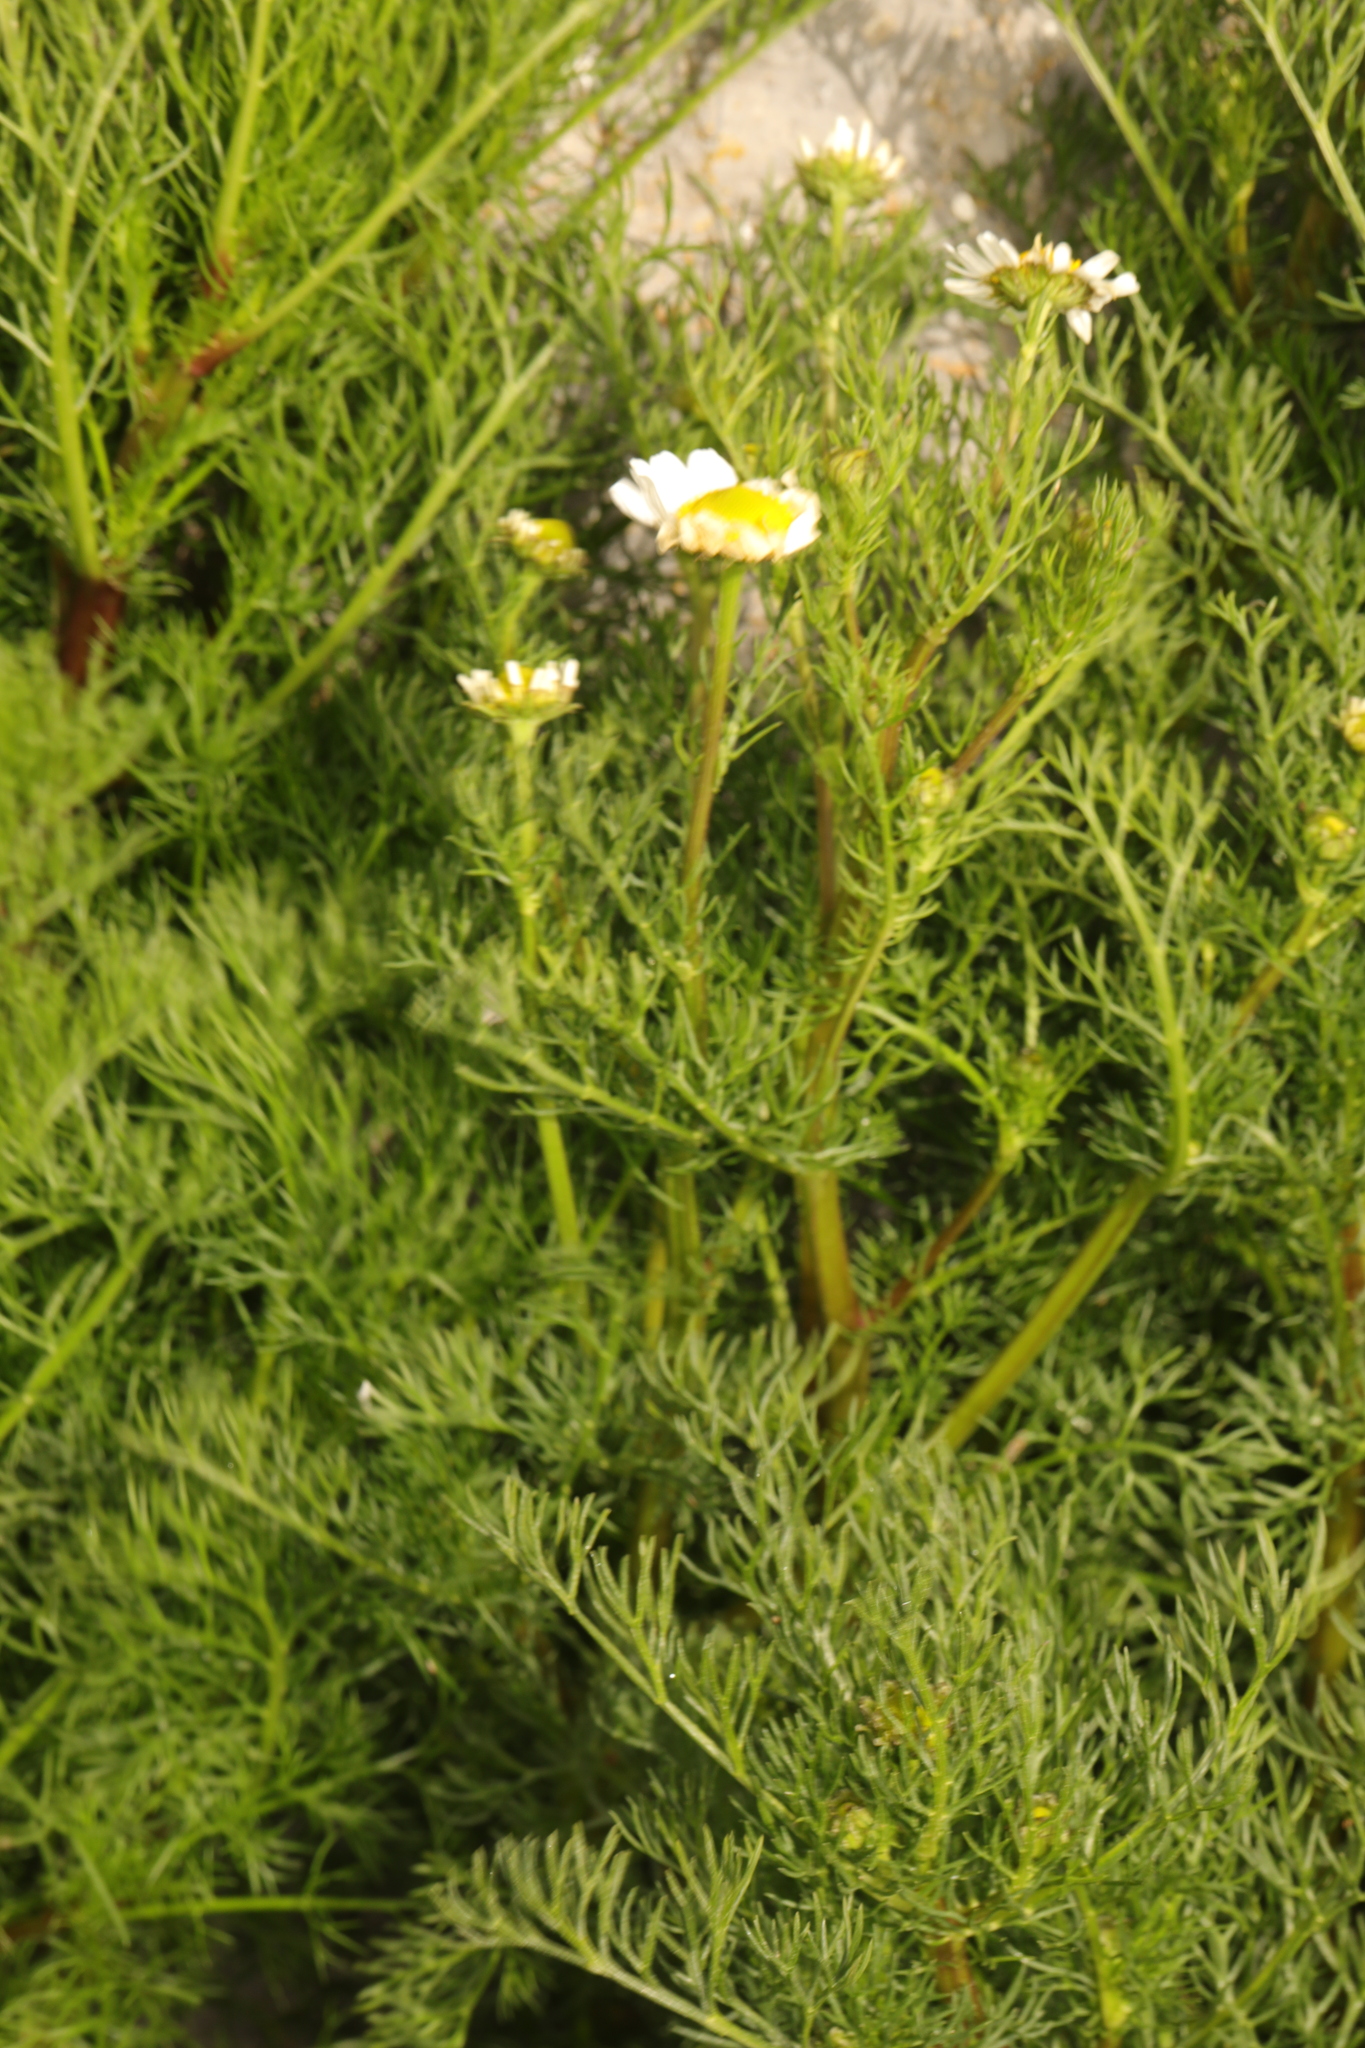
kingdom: Plantae
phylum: Tracheophyta
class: Magnoliopsida
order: Asterales
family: Asteraceae
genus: Tripleurospermum
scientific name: Tripleurospermum maritimum
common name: Sea mayweed
